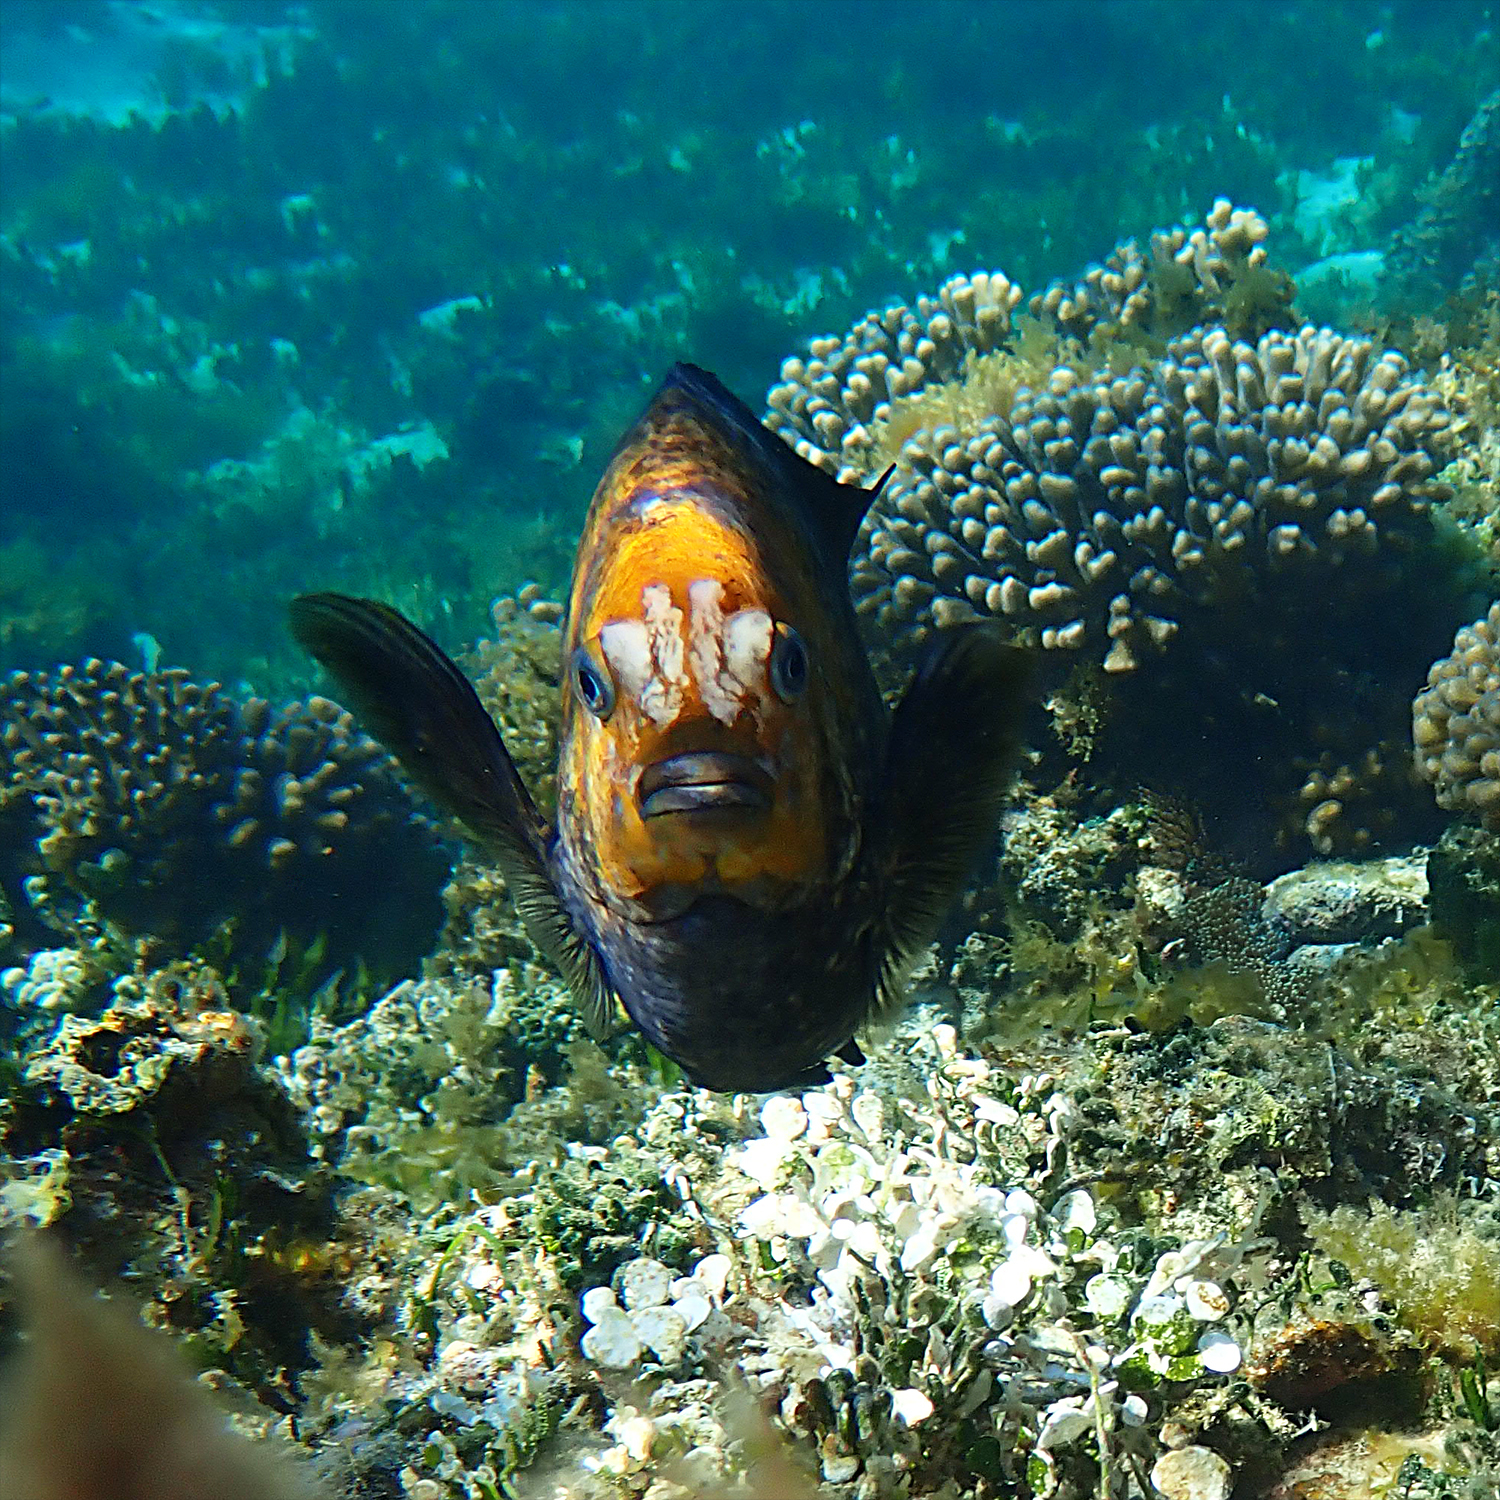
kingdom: Animalia
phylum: Chordata
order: Perciformes
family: Pomacentridae
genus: Parma
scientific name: Parma polylepis
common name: Banded parma
